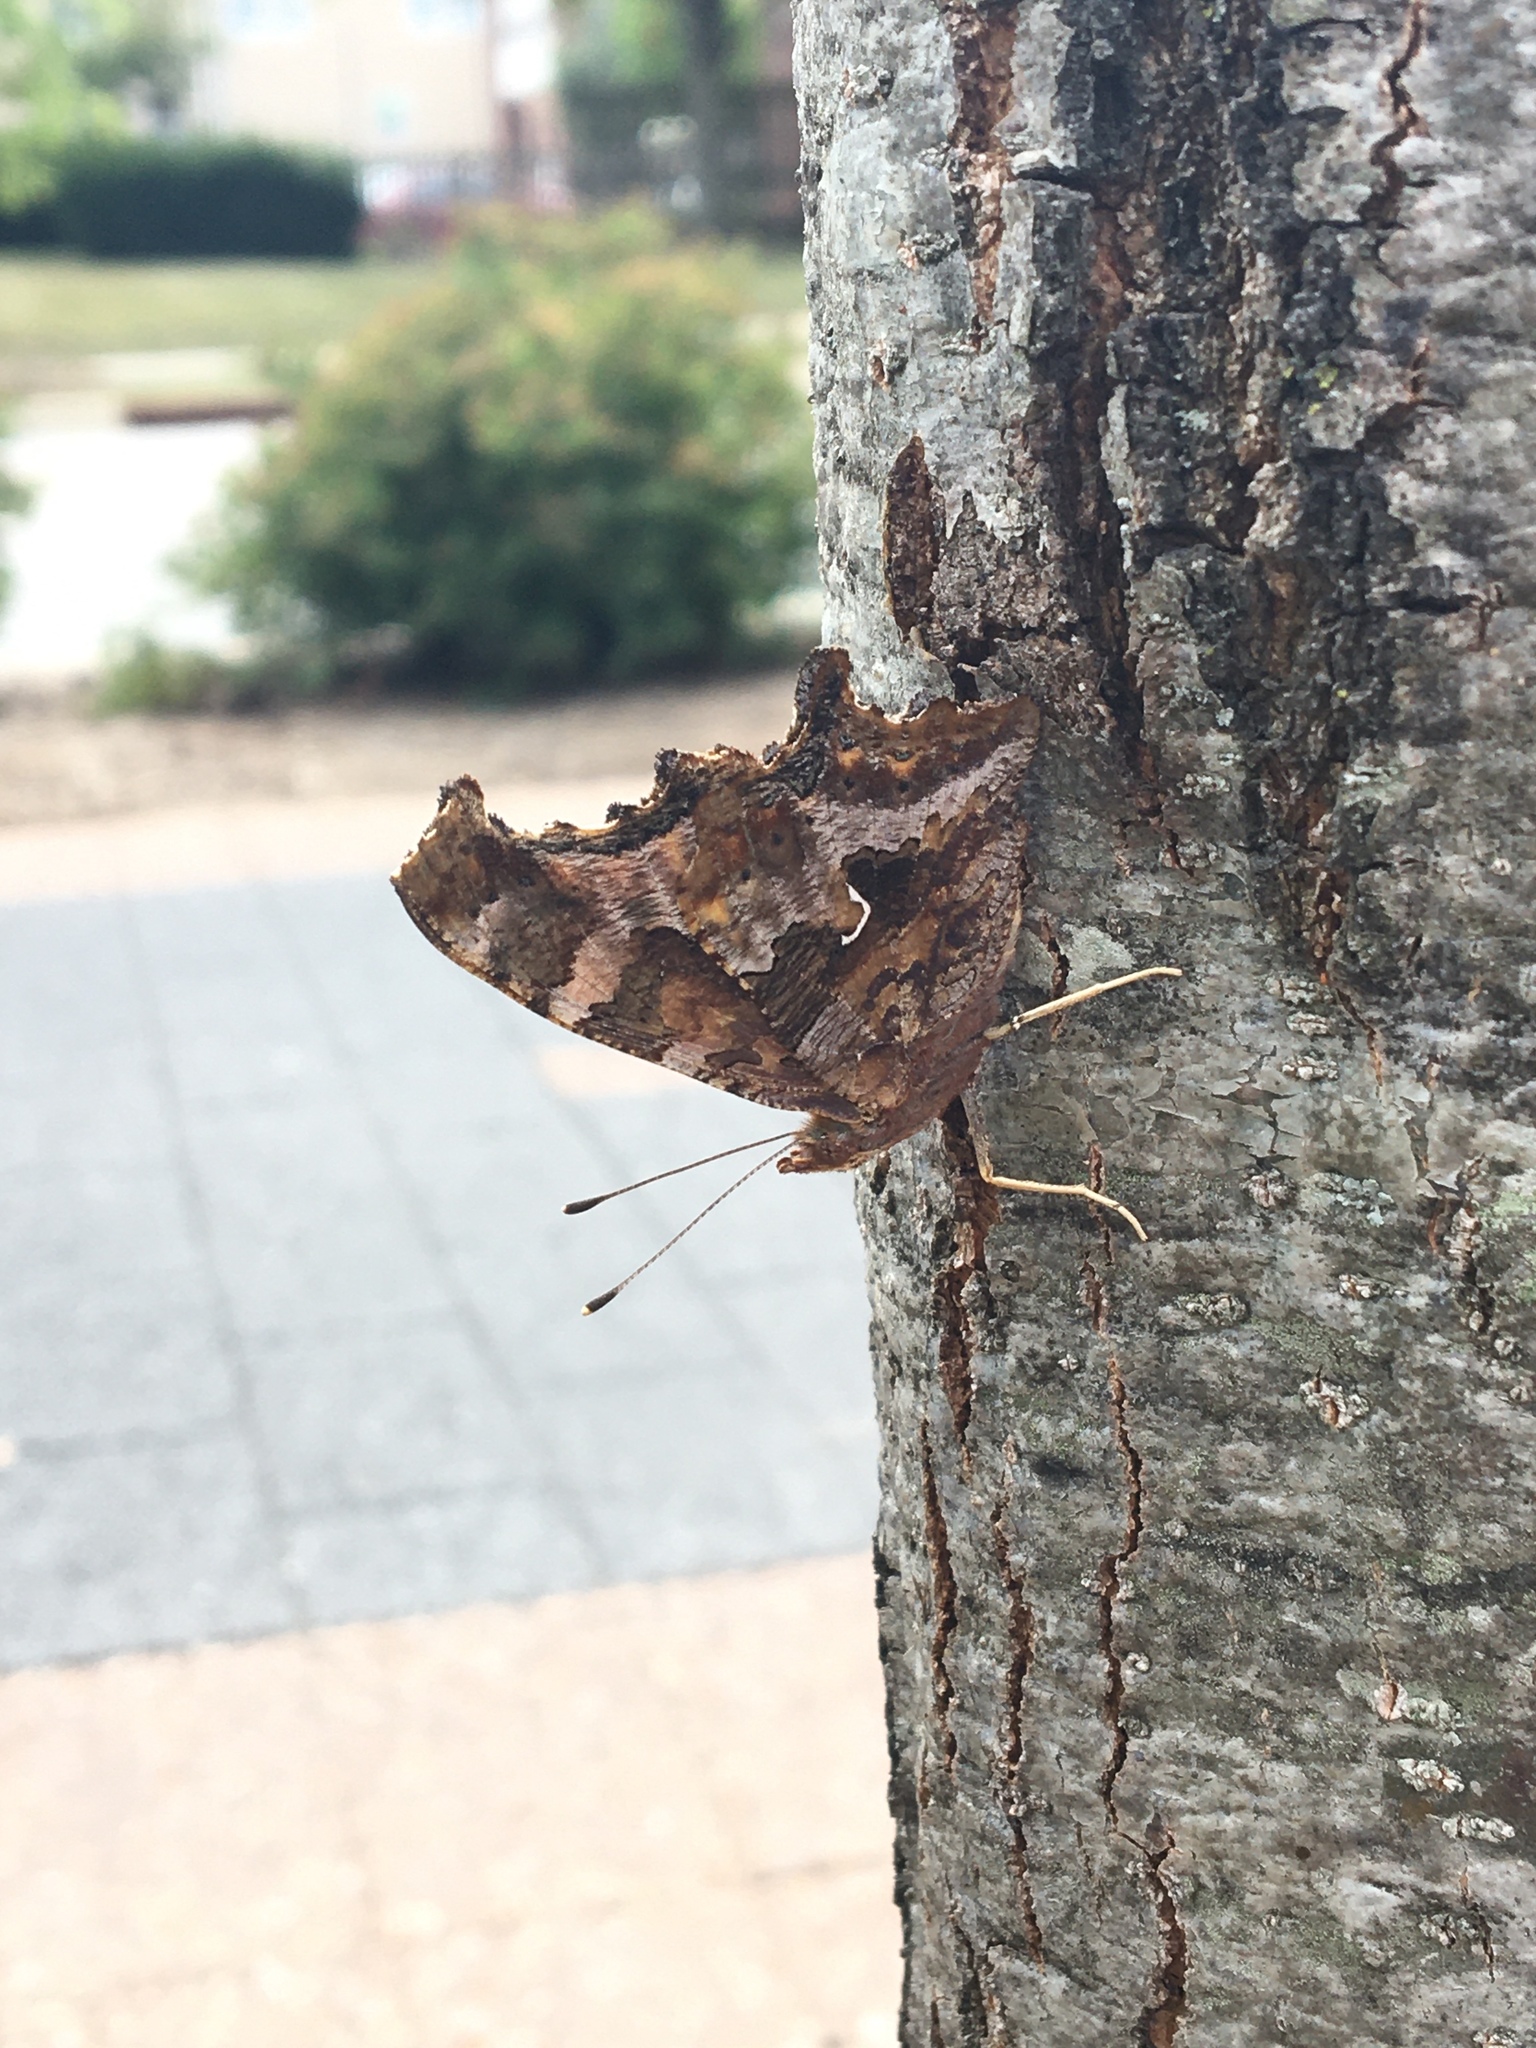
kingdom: Animalia
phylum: Arthropoda
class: Insecta
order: Lepidoptera
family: Nymphalidae
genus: Polygonia
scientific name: Polygonia comma
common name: Eastern comma
